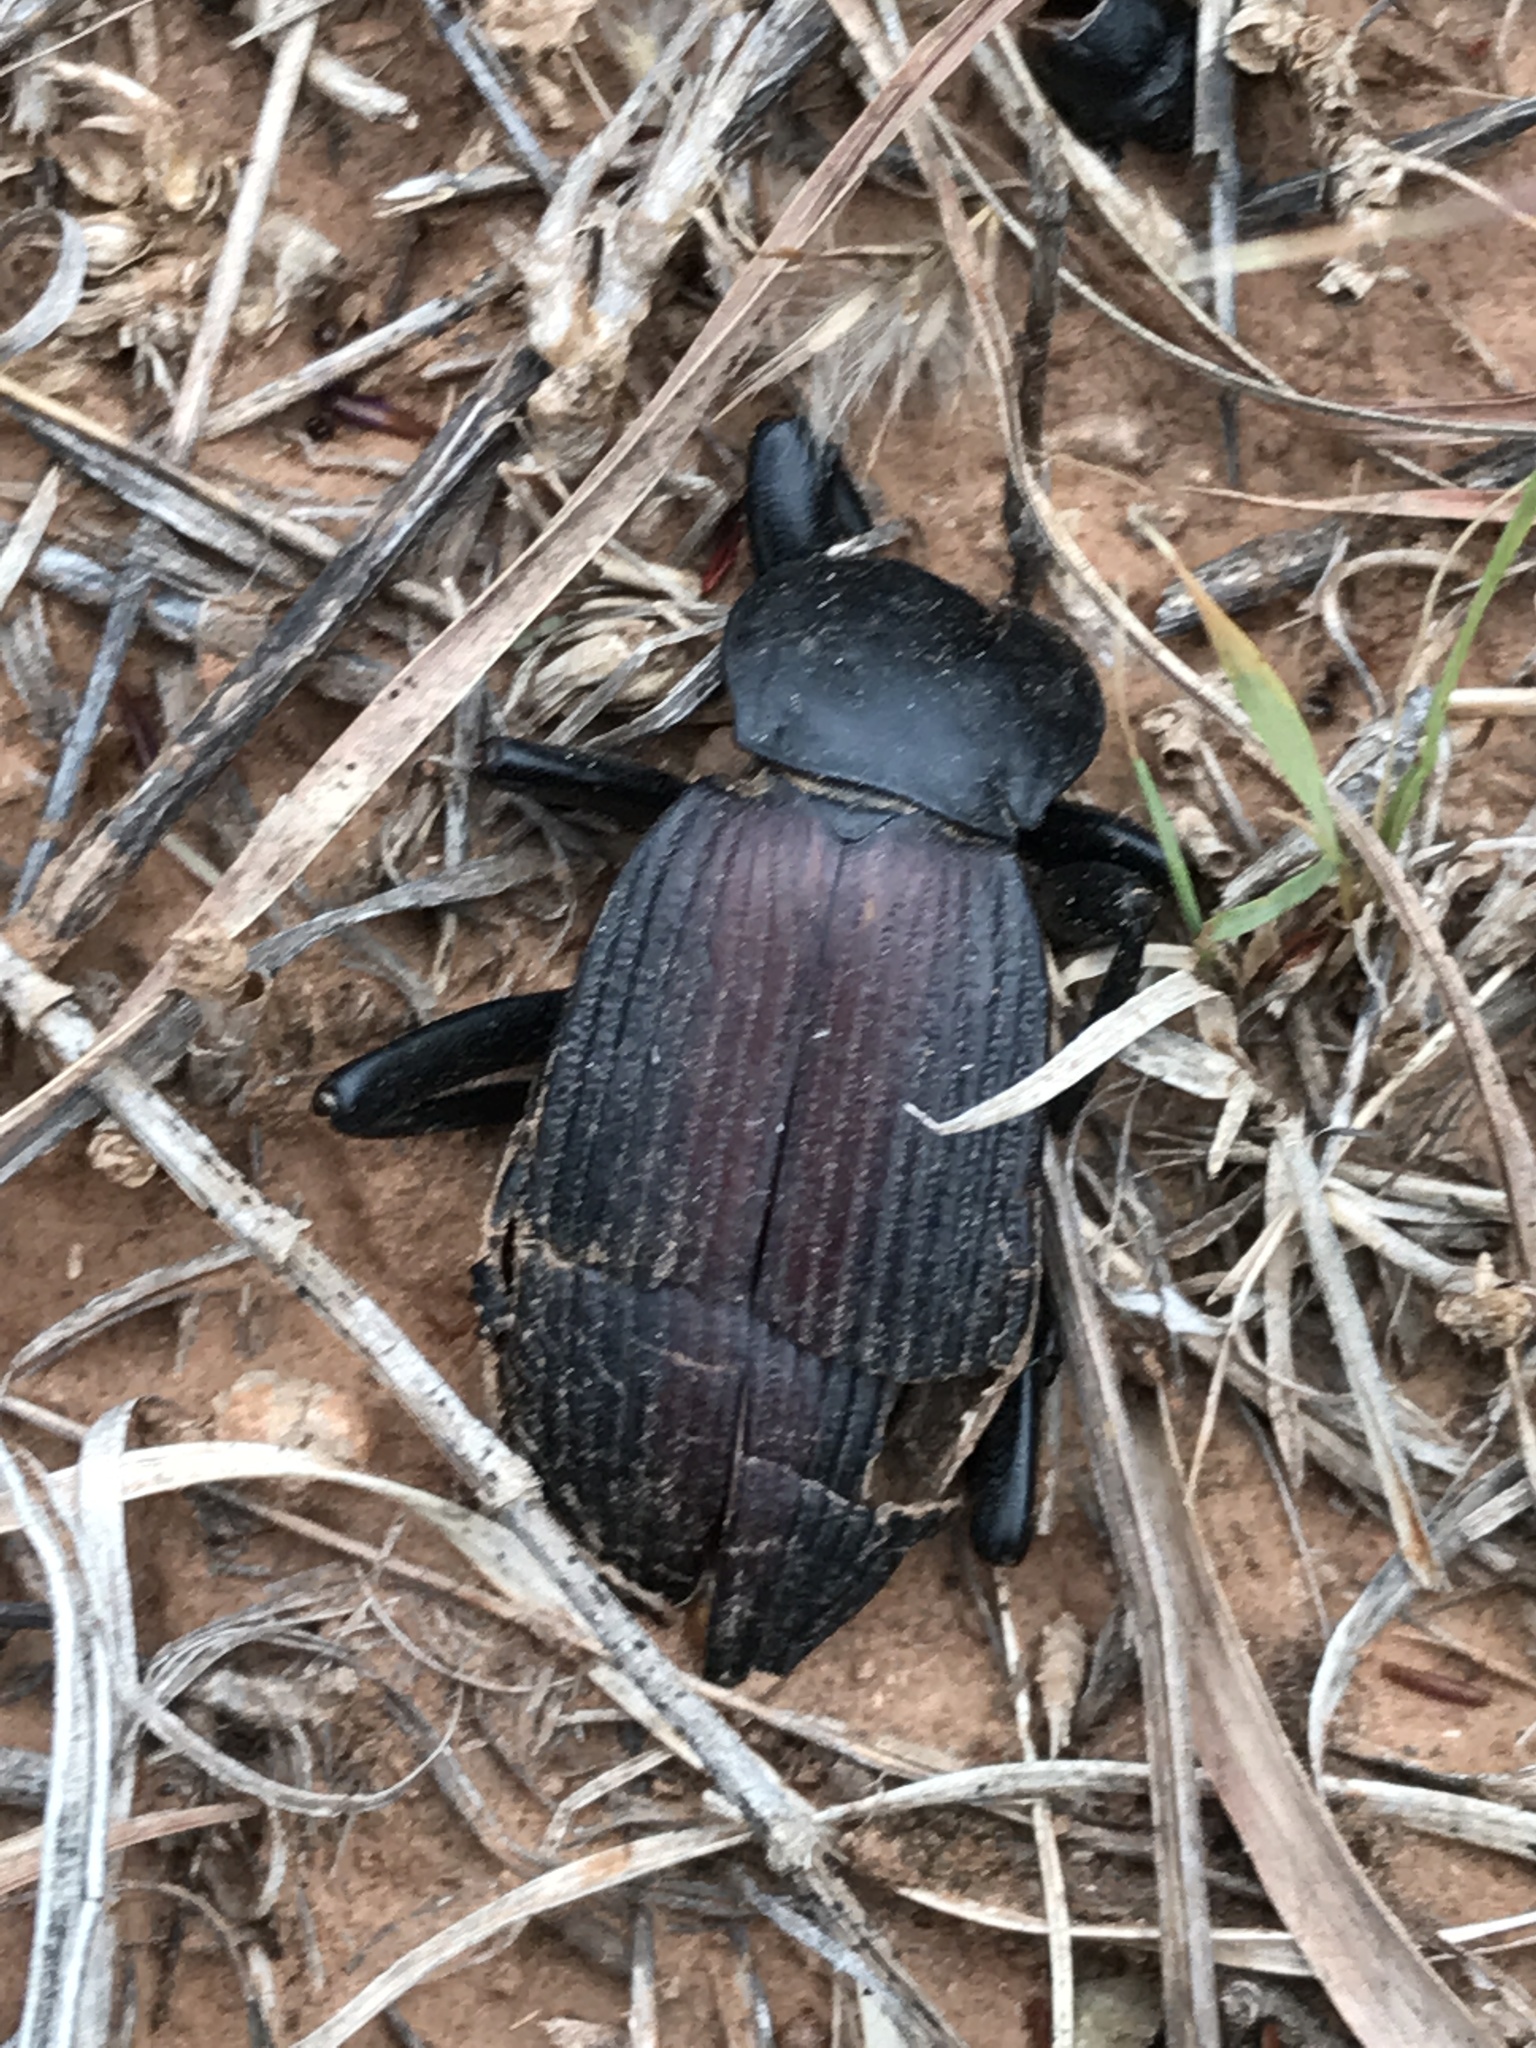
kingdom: Animalia
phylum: Arthropoda
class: Insecta
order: Coleoptera
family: Tenebrionidae
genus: Eleodes
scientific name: Eleodes acuta
